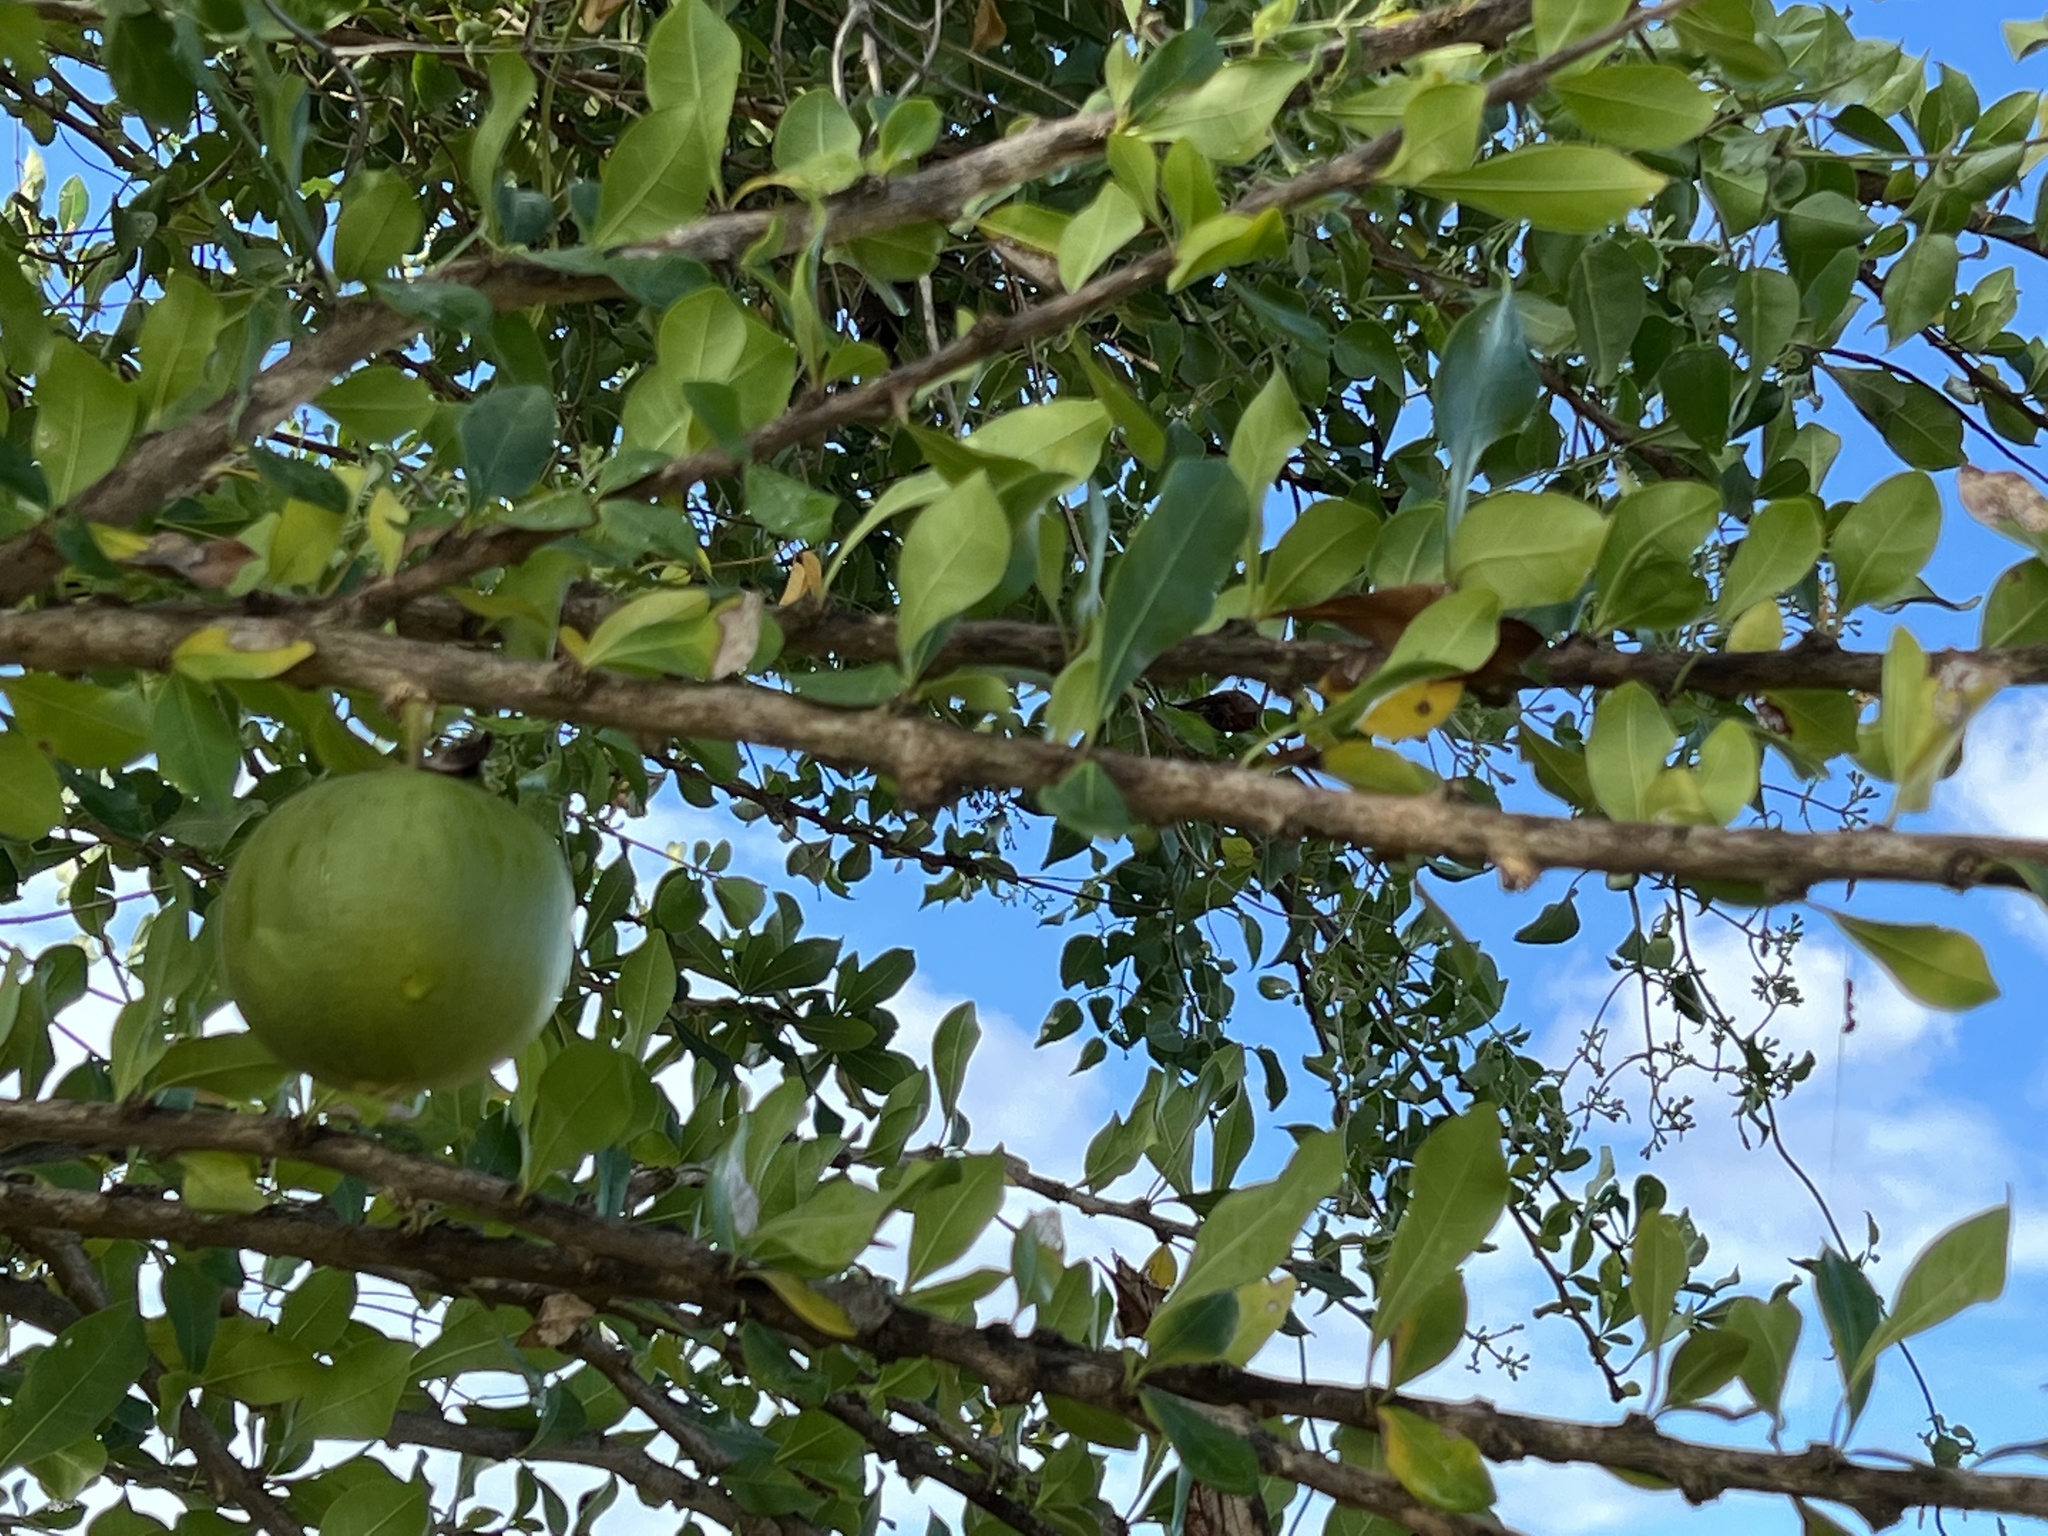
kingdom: Plantae
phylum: Tracheophyta
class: Magnoliopsida
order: Lamiales
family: Bignoniaceae
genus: Crescentia
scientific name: Crescentia cujete
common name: Calabash
